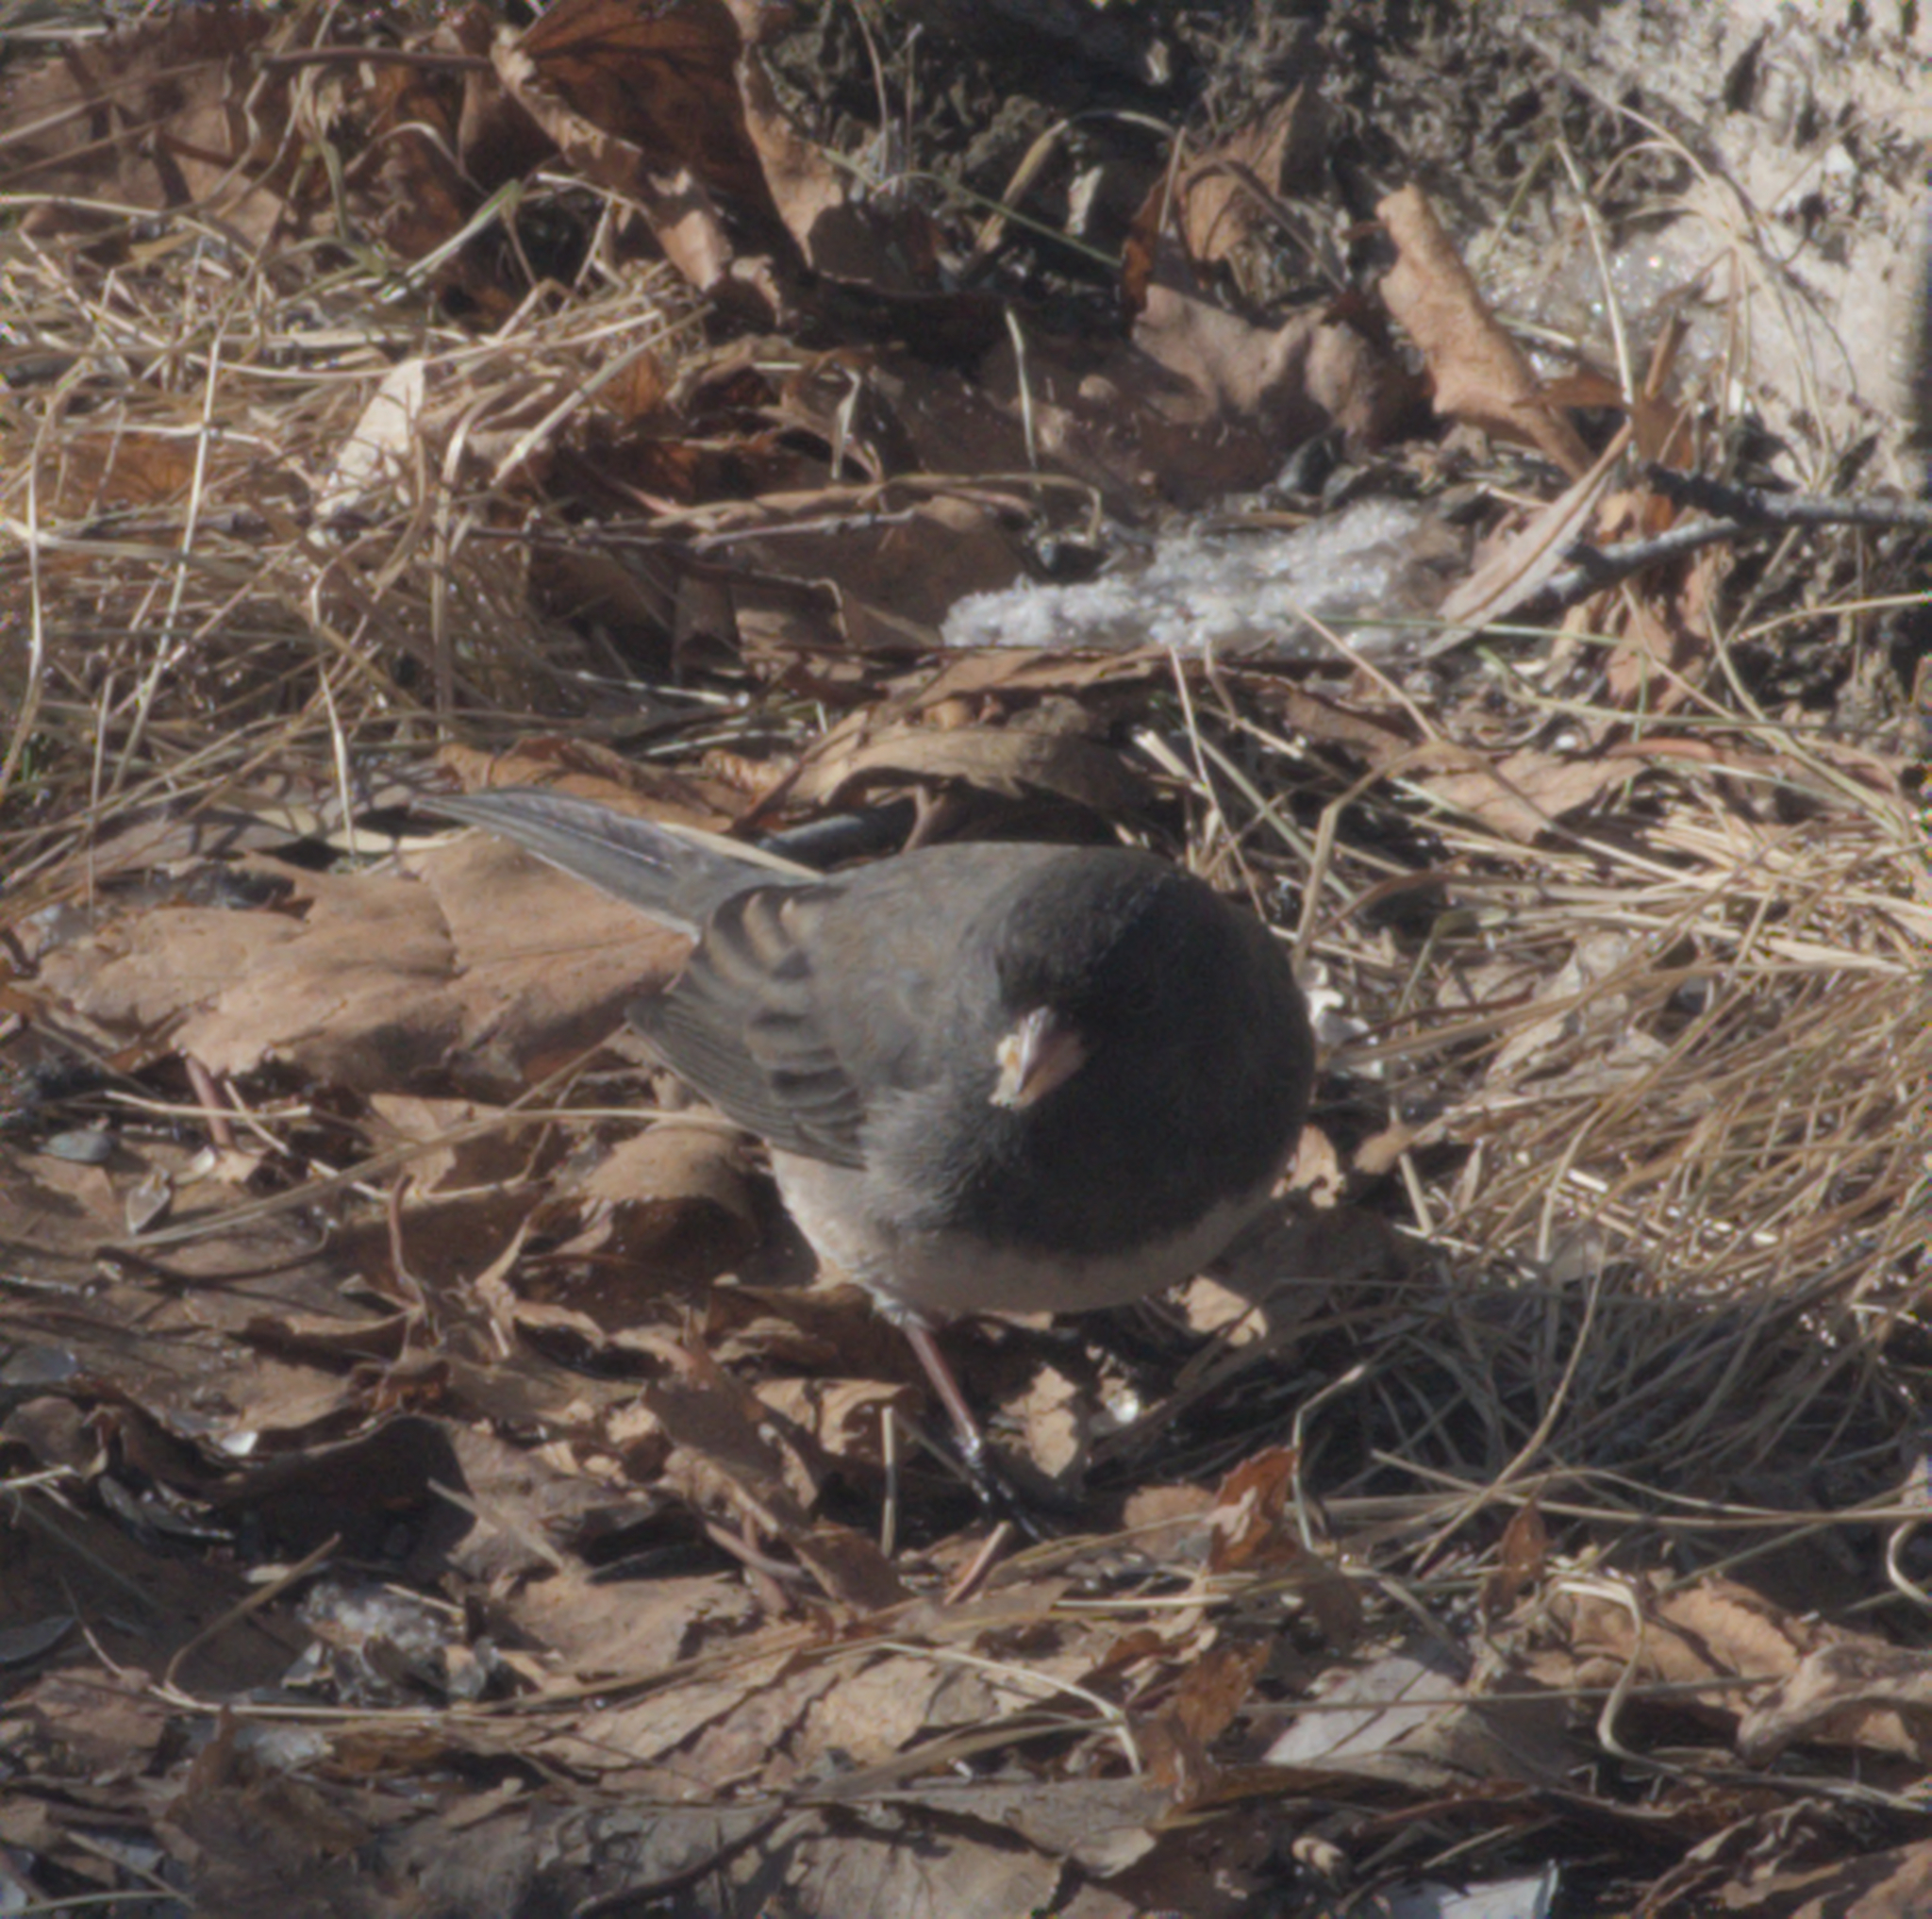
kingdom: Animalia
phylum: Chordata
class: Aves
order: Passeriformes
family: Passerellidae
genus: Junco
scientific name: Junco hyemalis
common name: Dark-eyed junco
